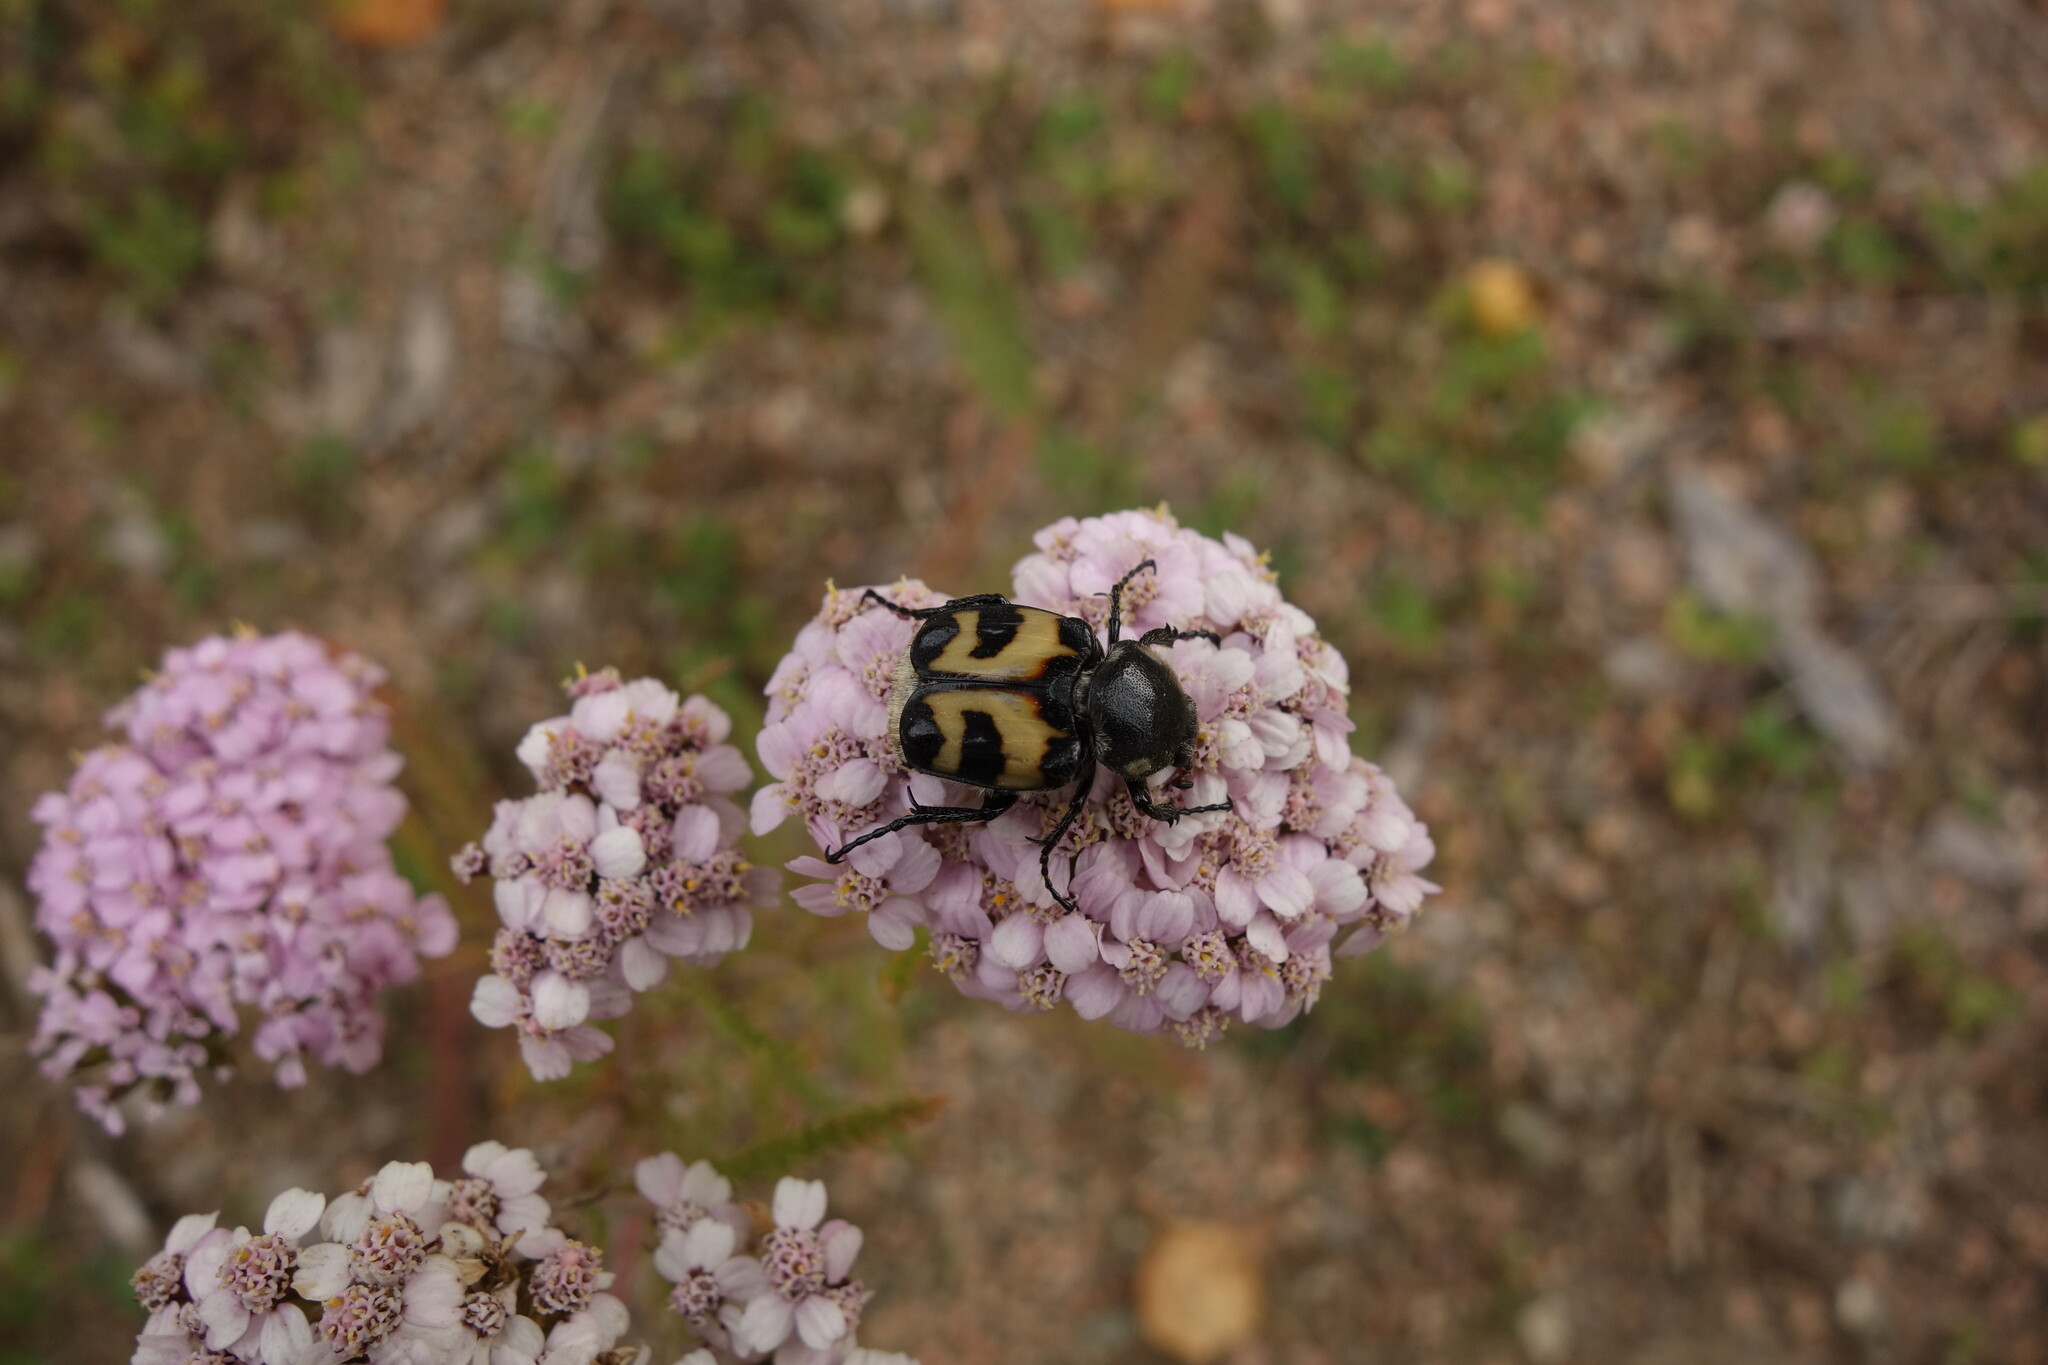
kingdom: Animalia
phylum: Arthropoda
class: Insecta
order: Coleoptera
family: Scarabaeidae
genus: Trichius
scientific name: Trichius fasciatus
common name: Bee beetle
